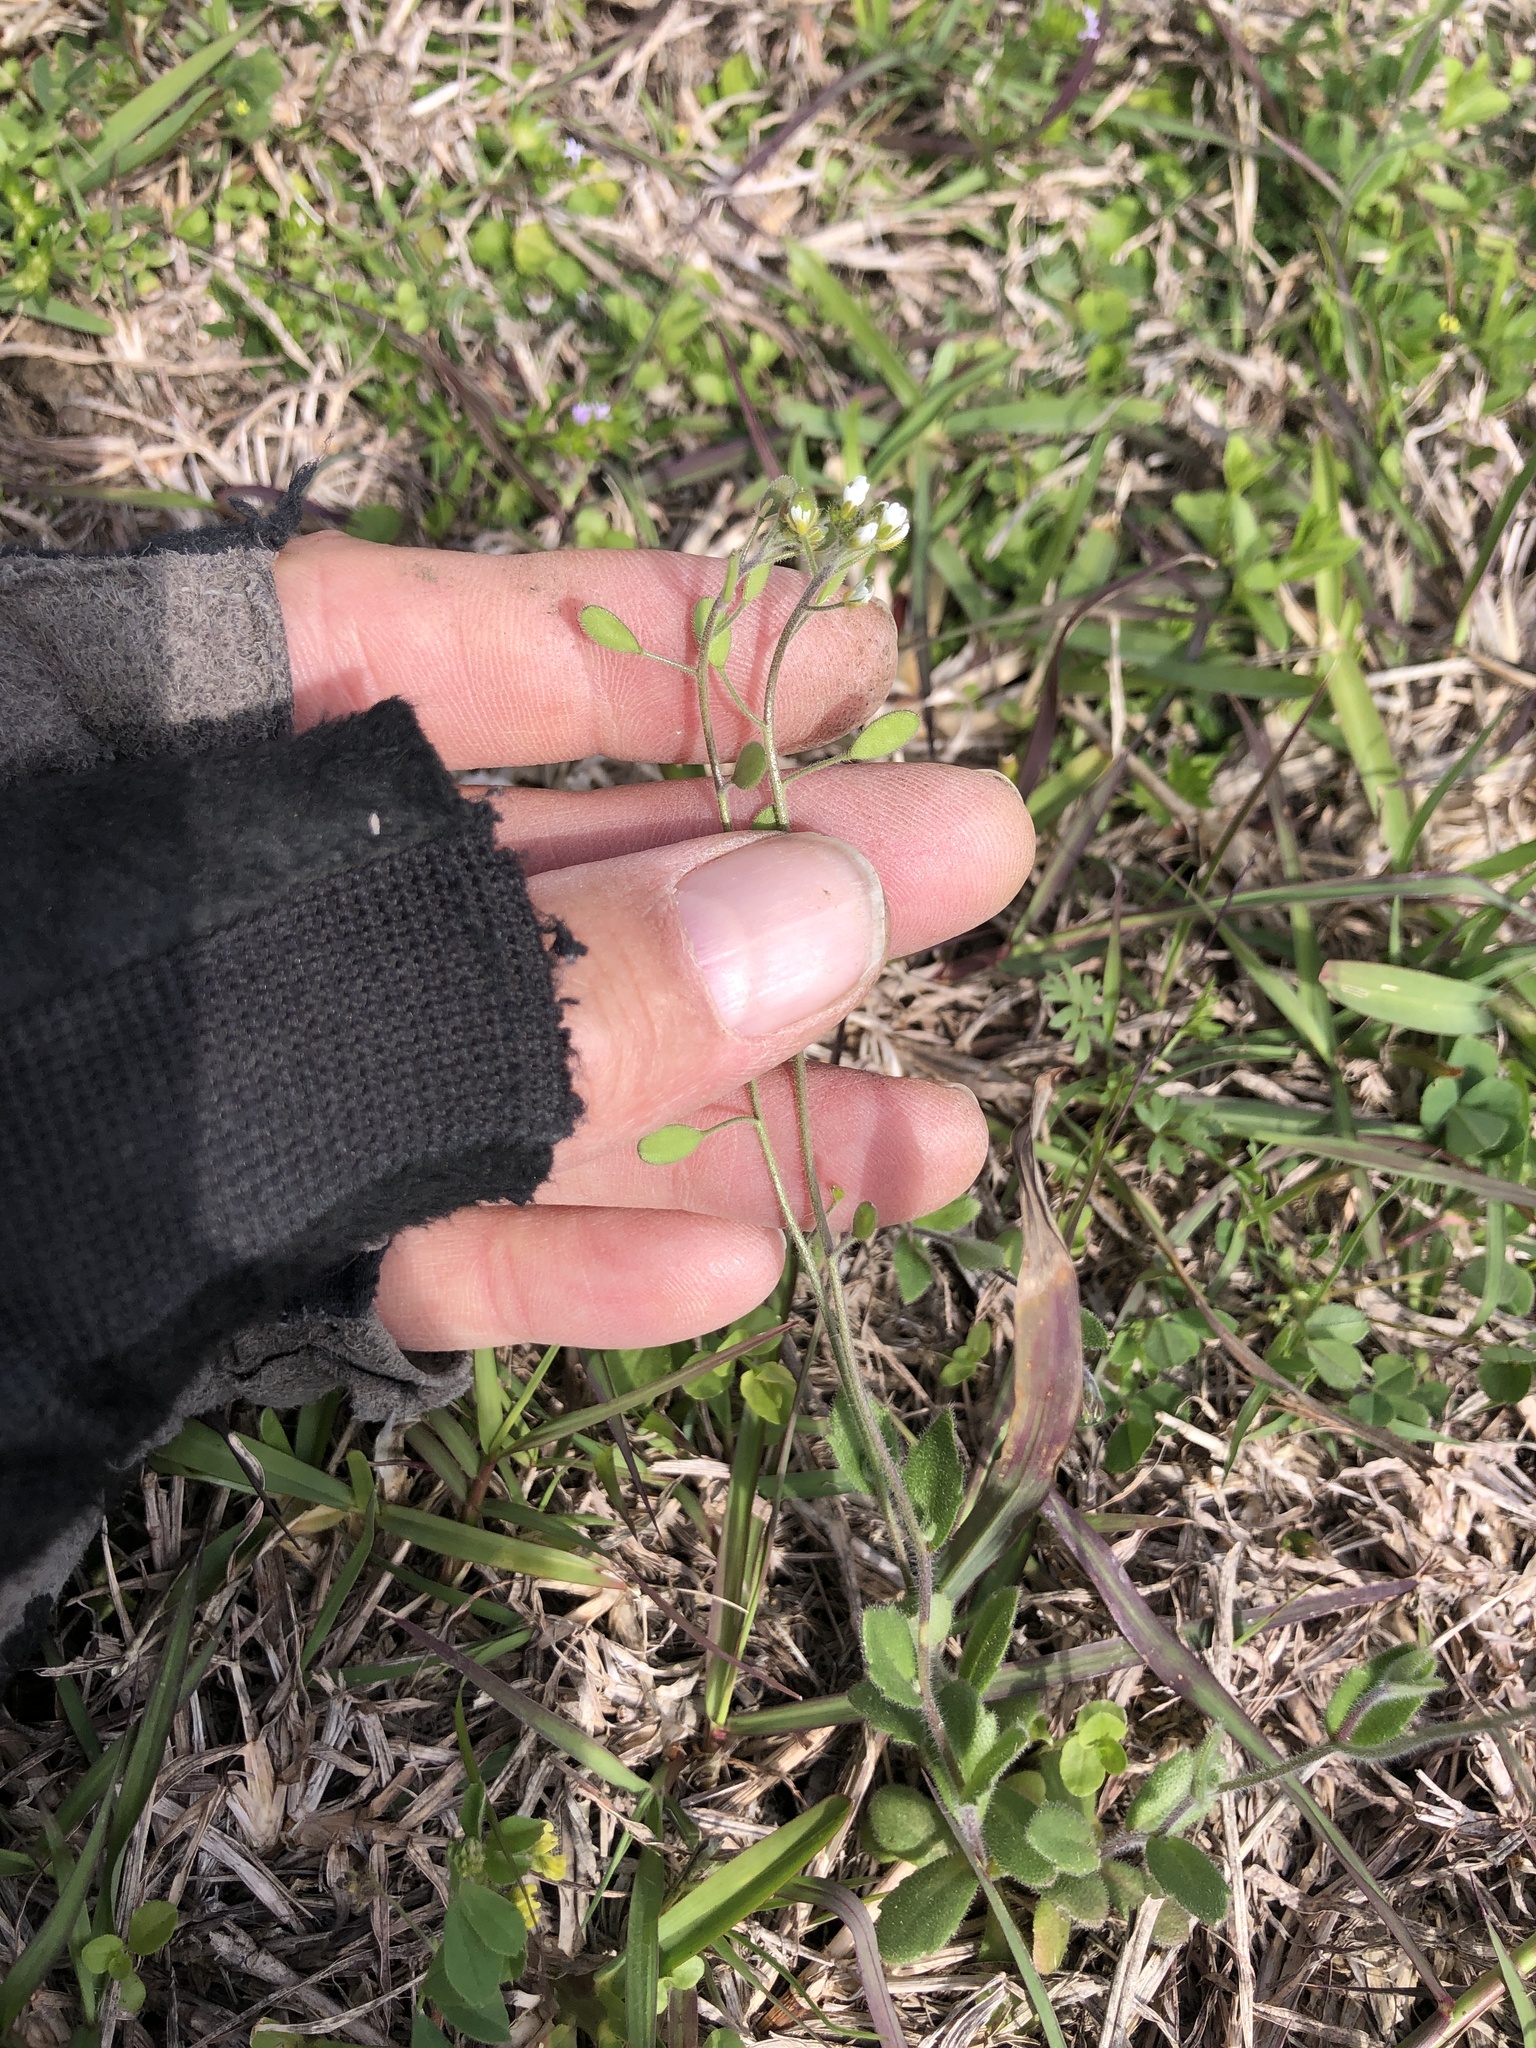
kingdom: Plantae
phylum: Tracheophyta
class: Magnoliopsida
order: Brassicales
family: Brassicaceae
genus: Tomostima
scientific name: Tomostima platycarpa
